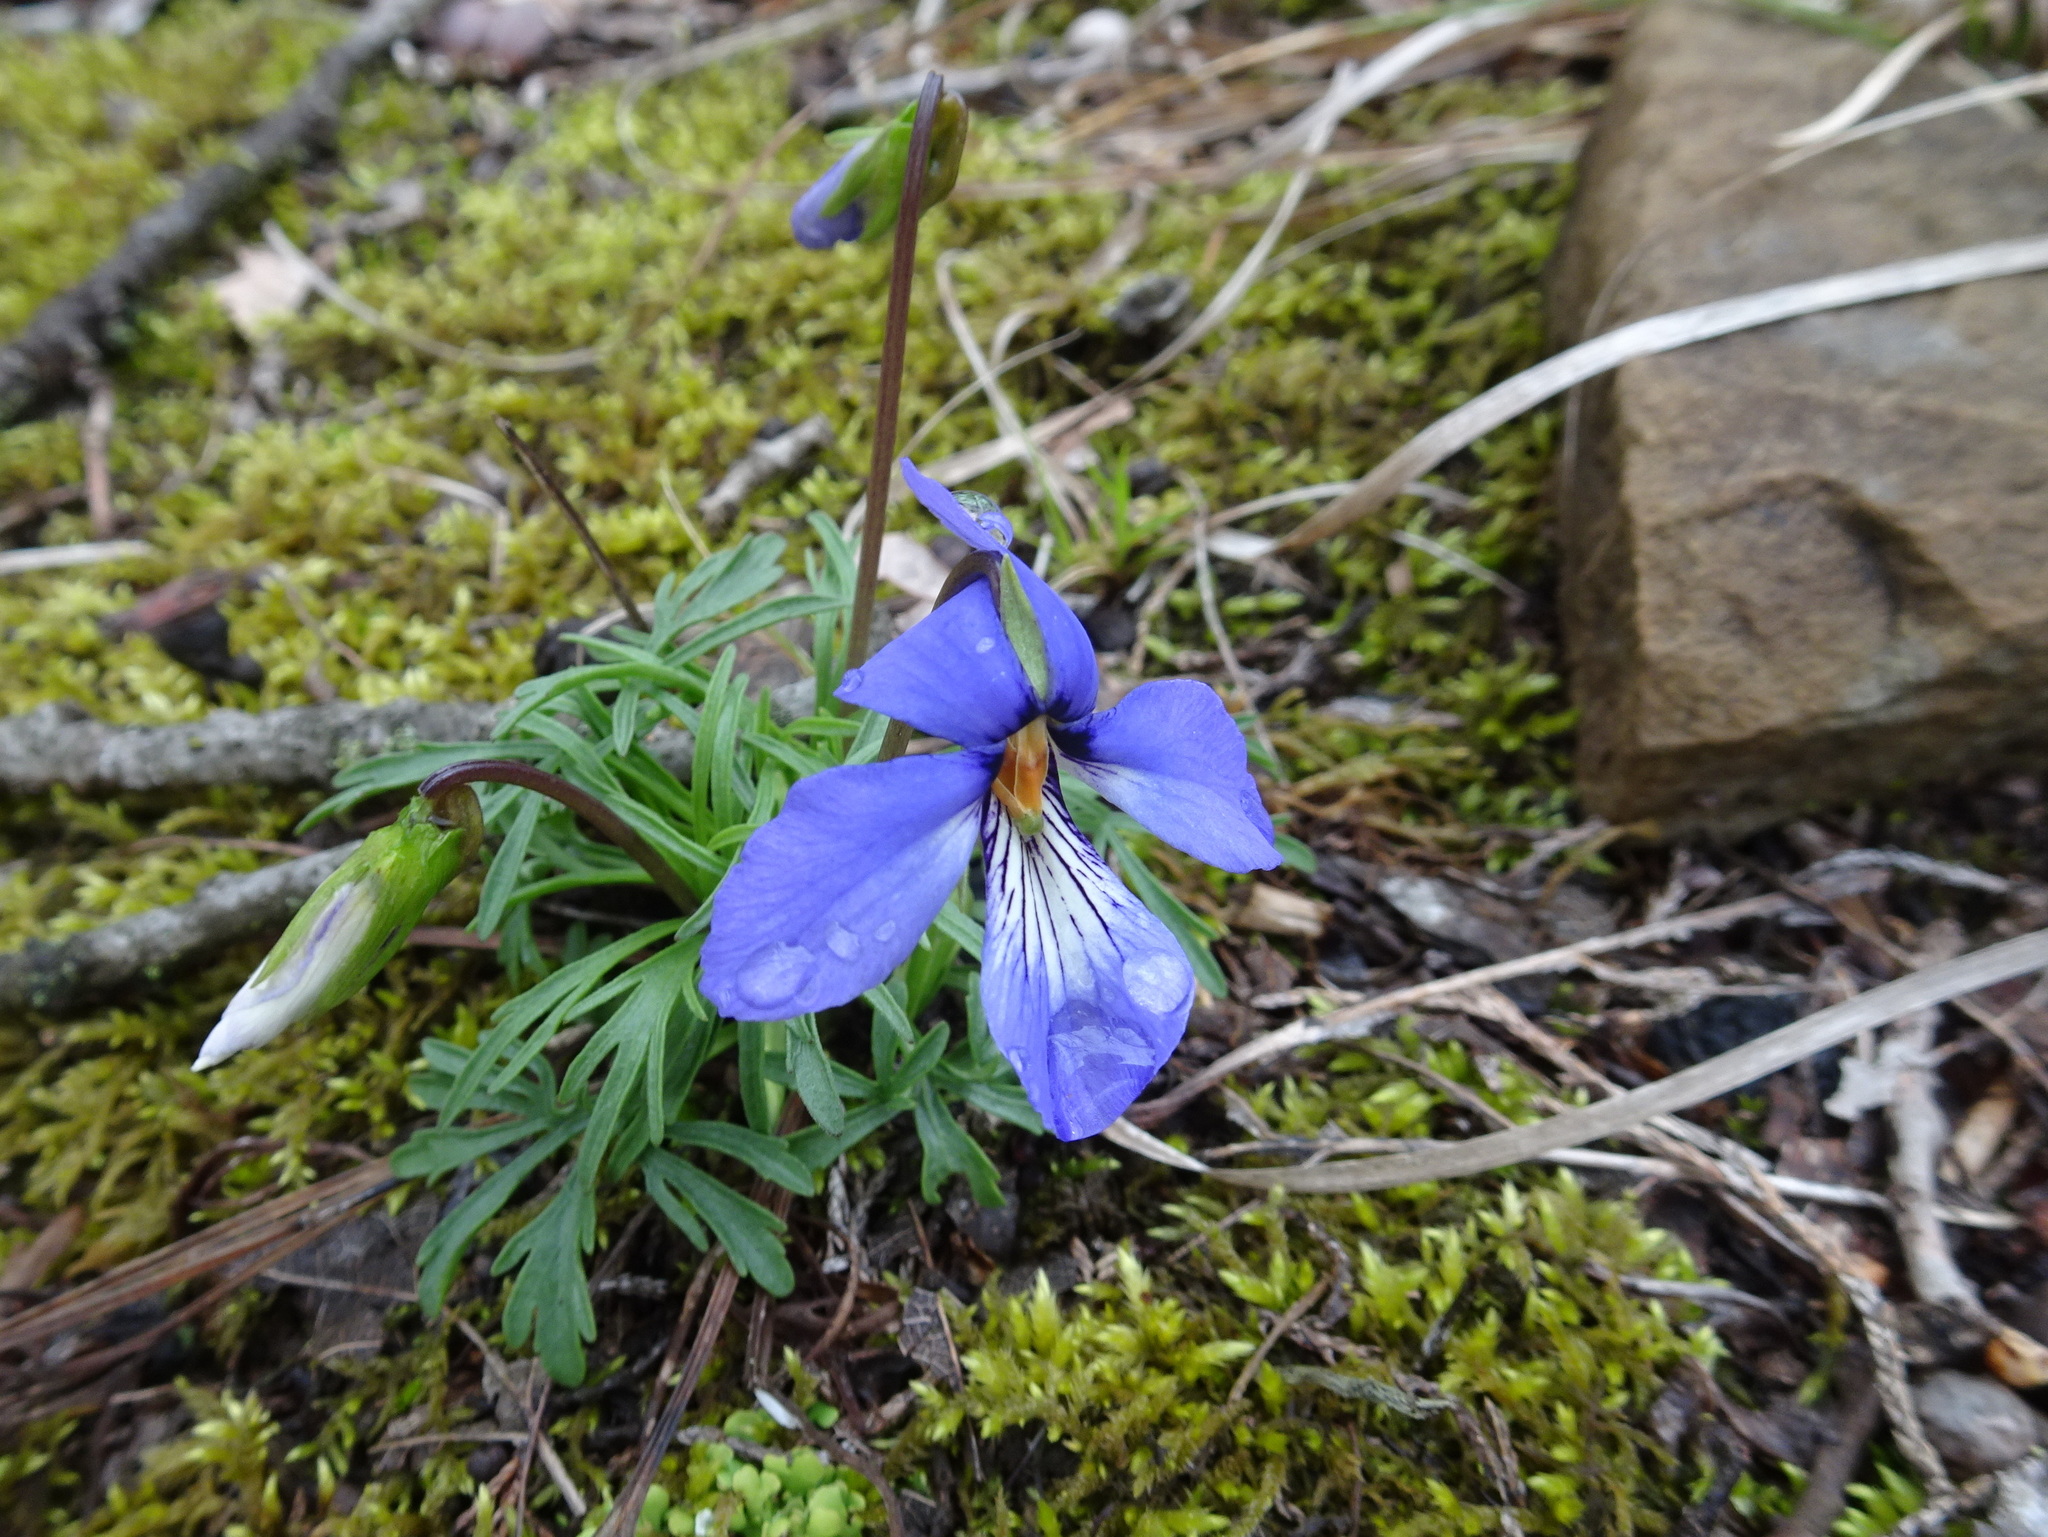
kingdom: Plantae
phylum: Tracheophyta
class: Magnoliopsida
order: Malpighiales
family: Violaceae
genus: Viola
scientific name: Viola pedata
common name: Pansy violet
